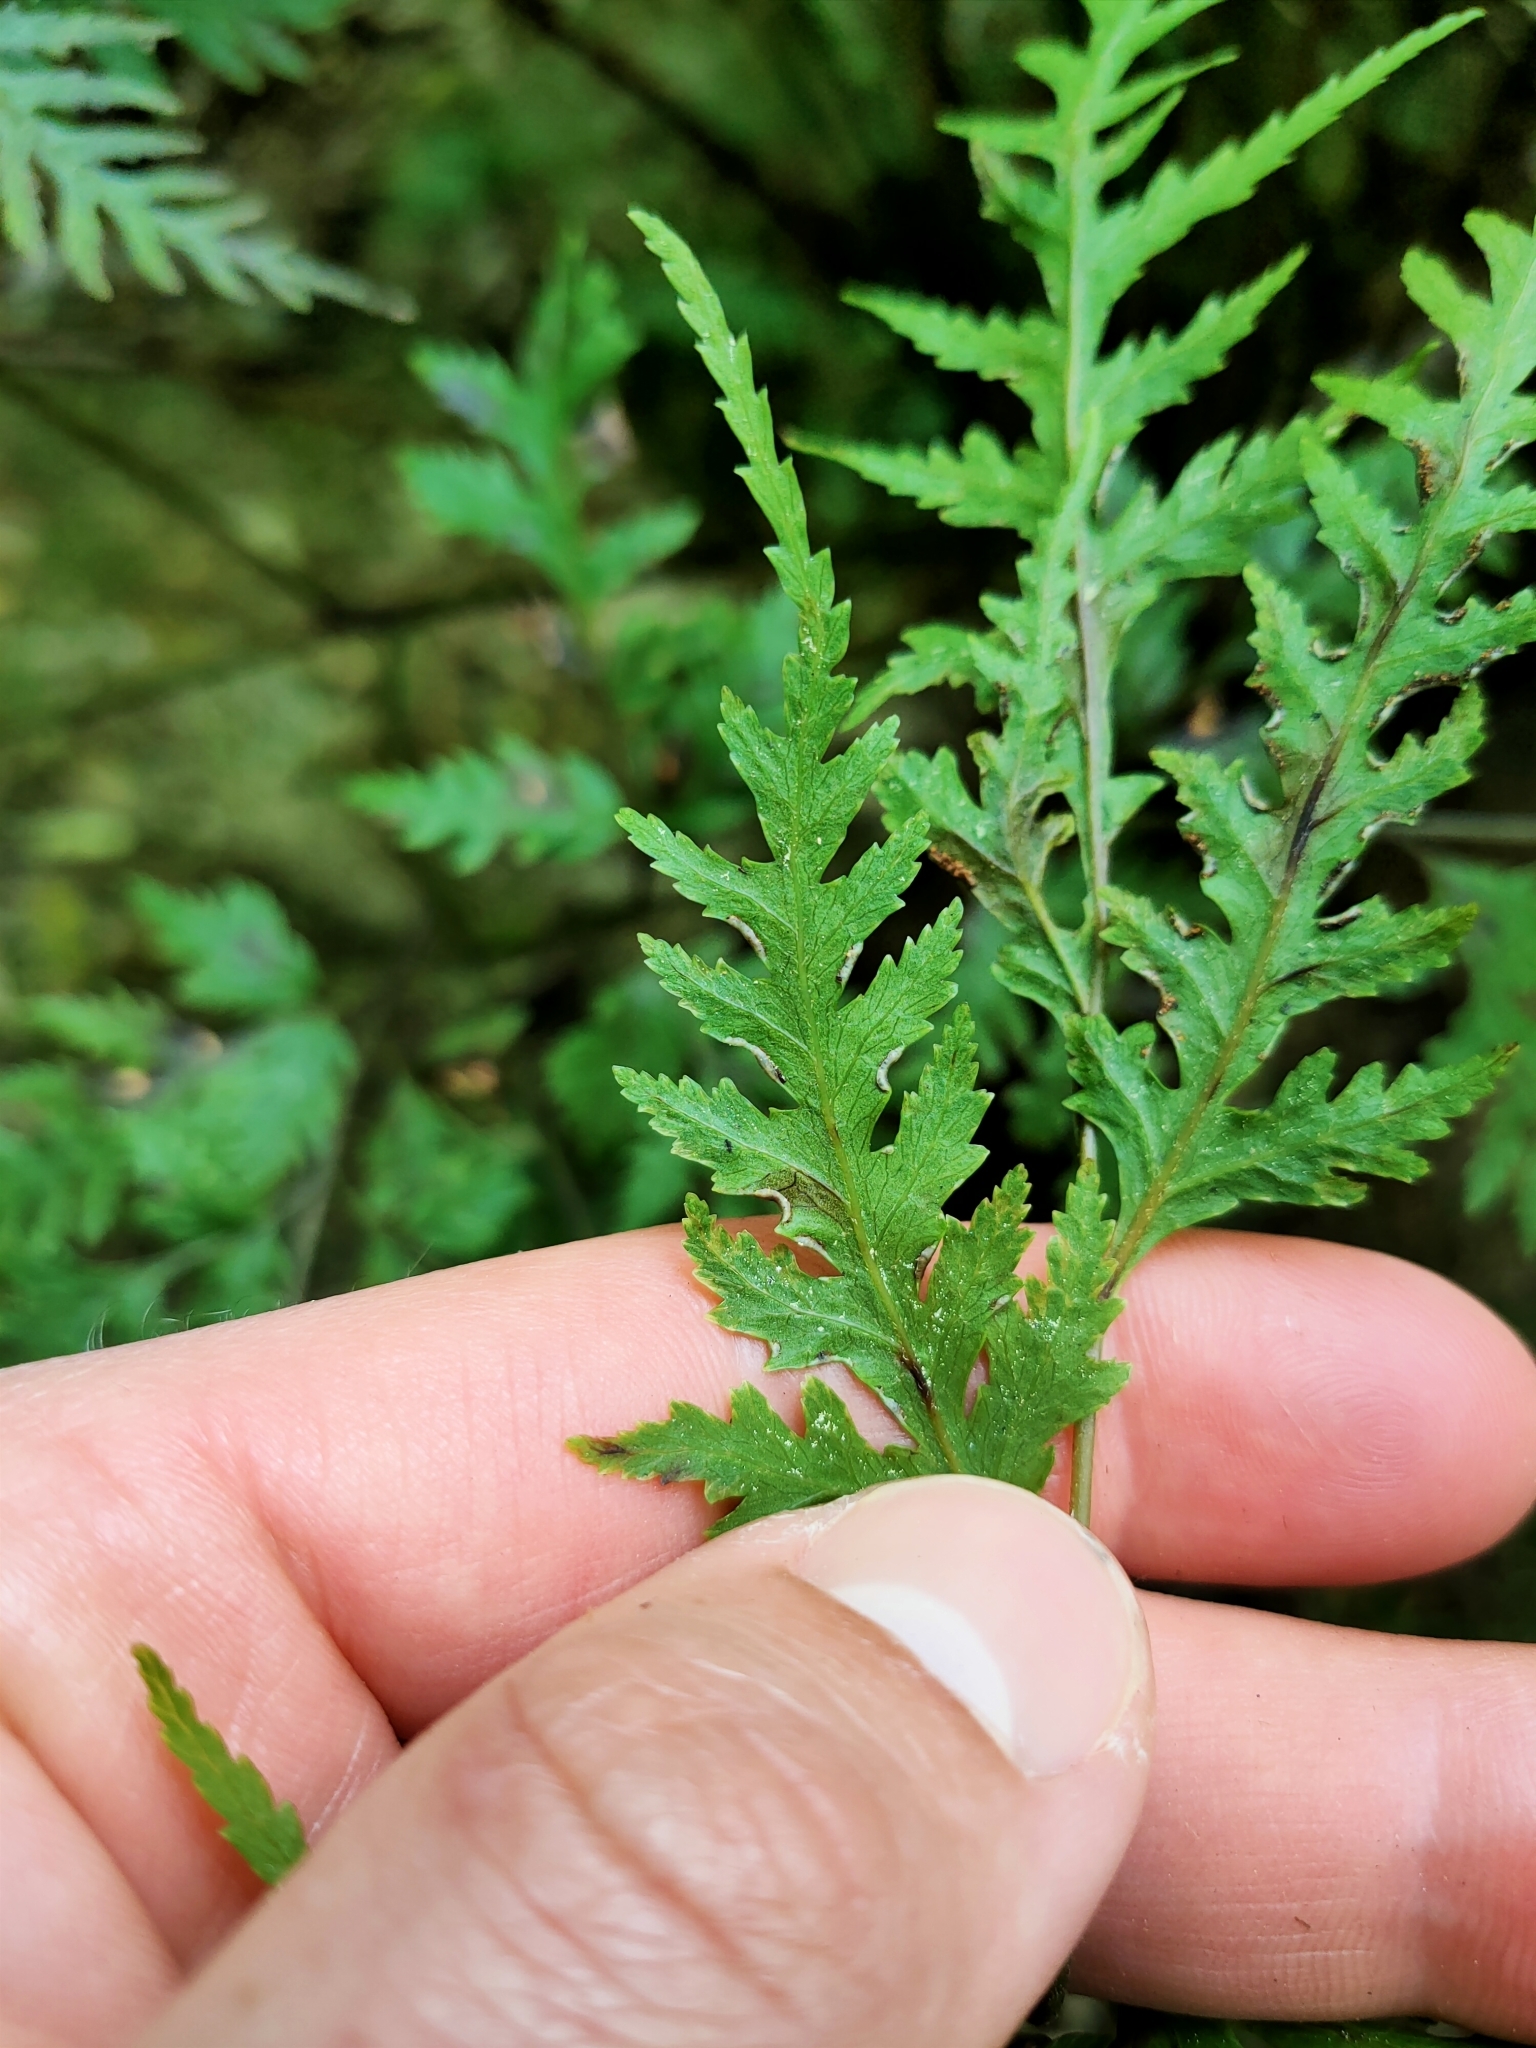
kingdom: Plantae
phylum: Tracheophyta
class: Polypodiopsida
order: Polypodiales
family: Pteridaceae
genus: Pteris
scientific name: Pteris macilenta
